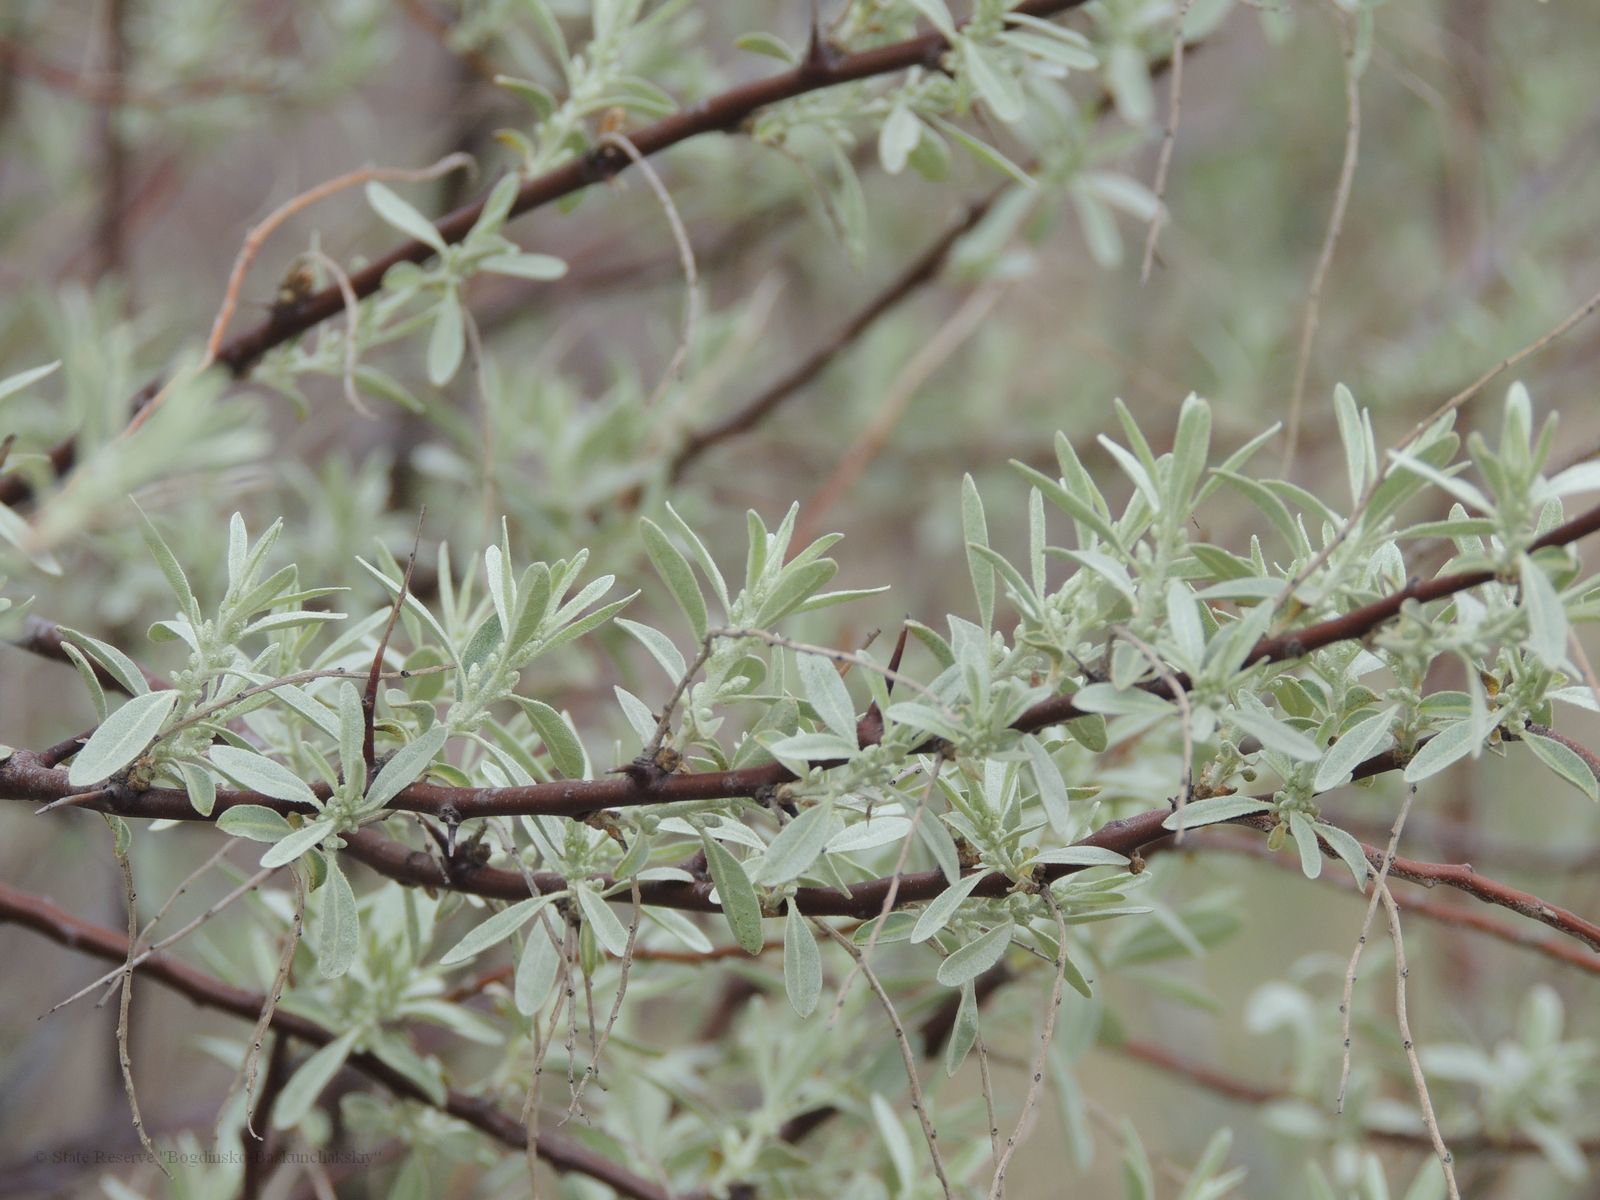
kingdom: Plantae
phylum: Tracheophyta
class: Magnoliopsida
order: Rosales
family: Elaeagnaceae
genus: Elaeagnus
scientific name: Elaeagnus angustifolia
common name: Russian olive
